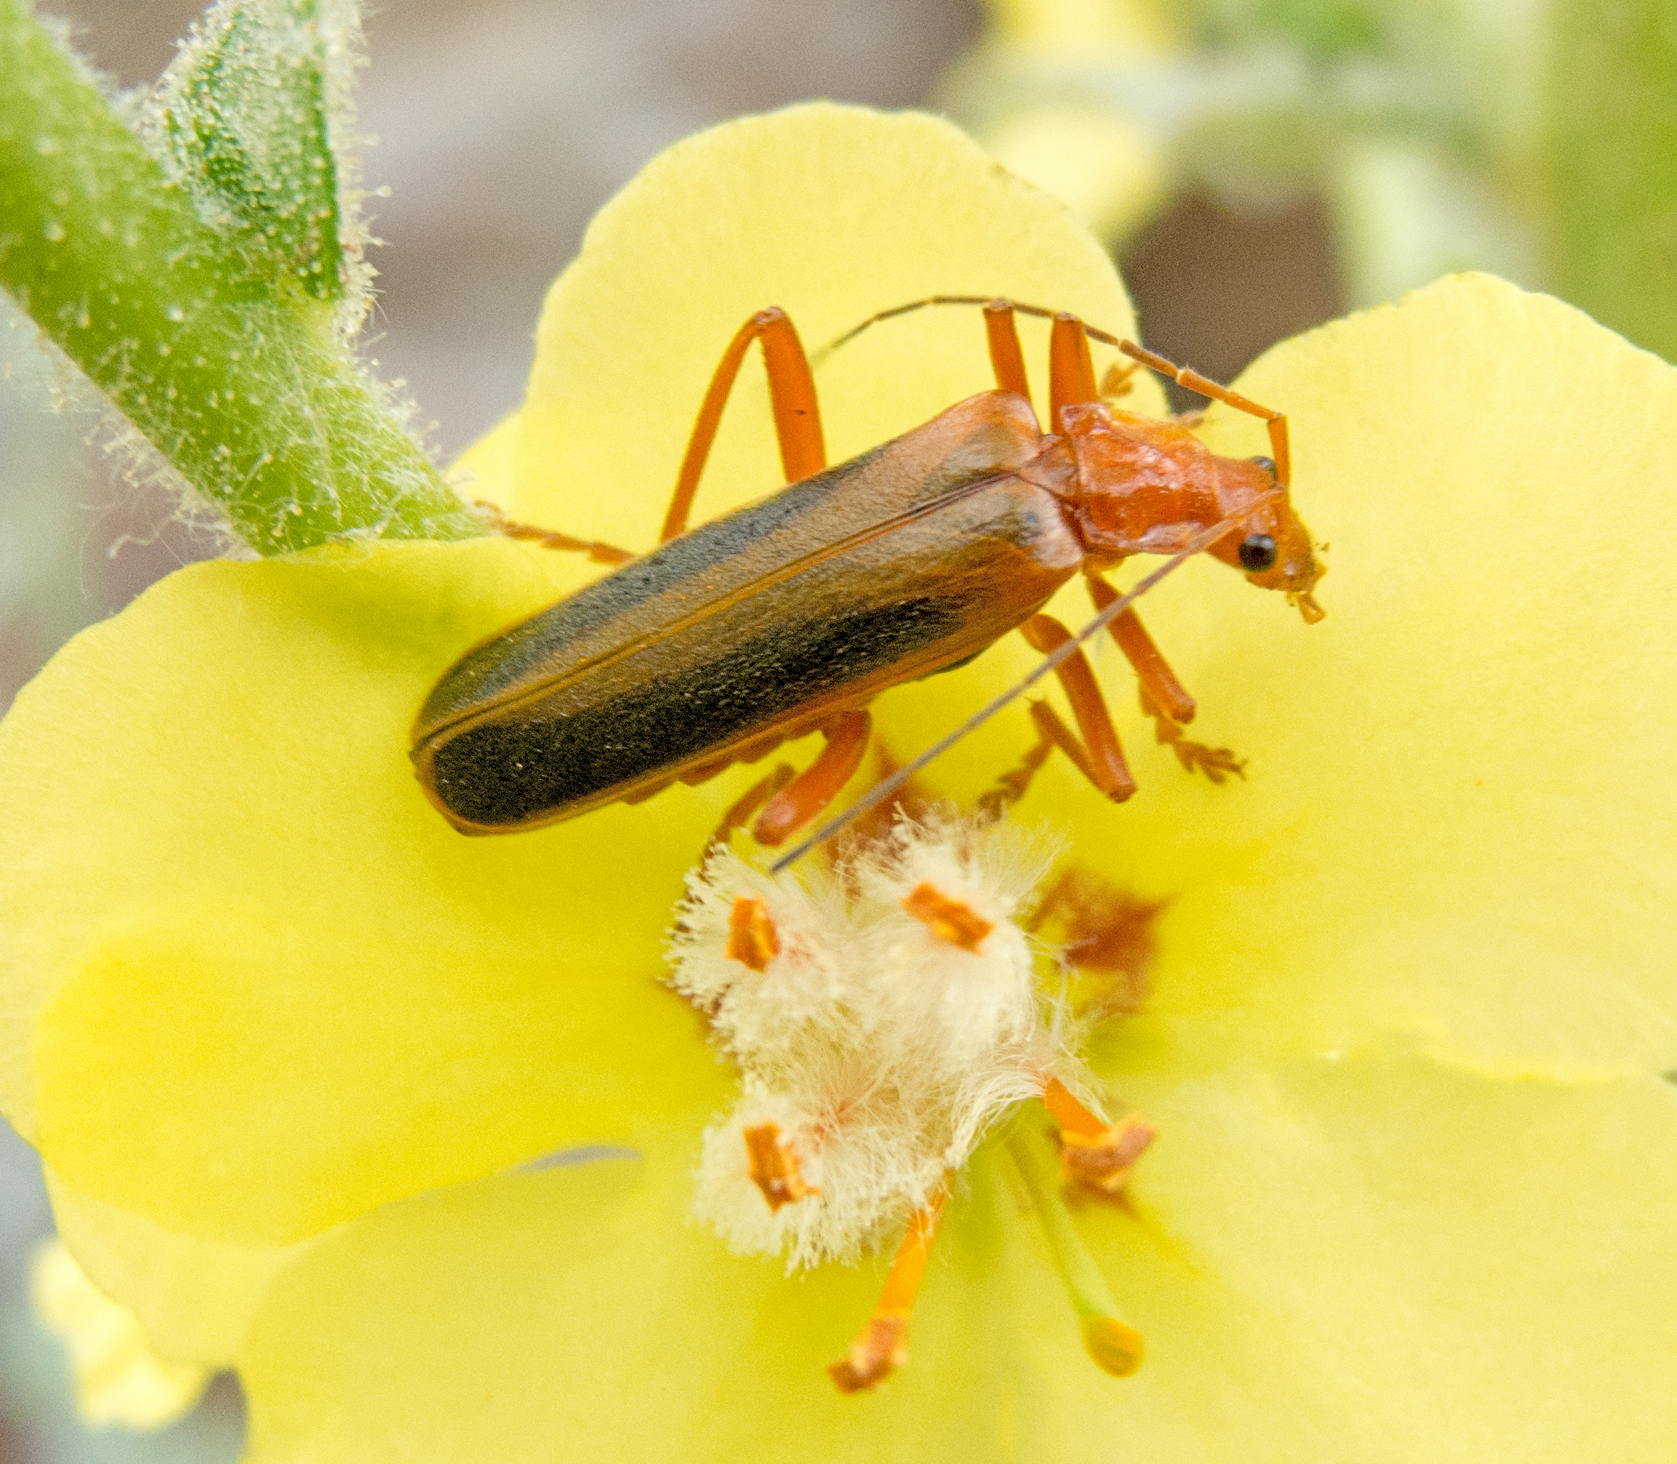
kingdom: Animalia
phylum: Arthropoda
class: Insecta
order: Coleoptera
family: Cantharidae
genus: Armidia
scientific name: Armidia signata
